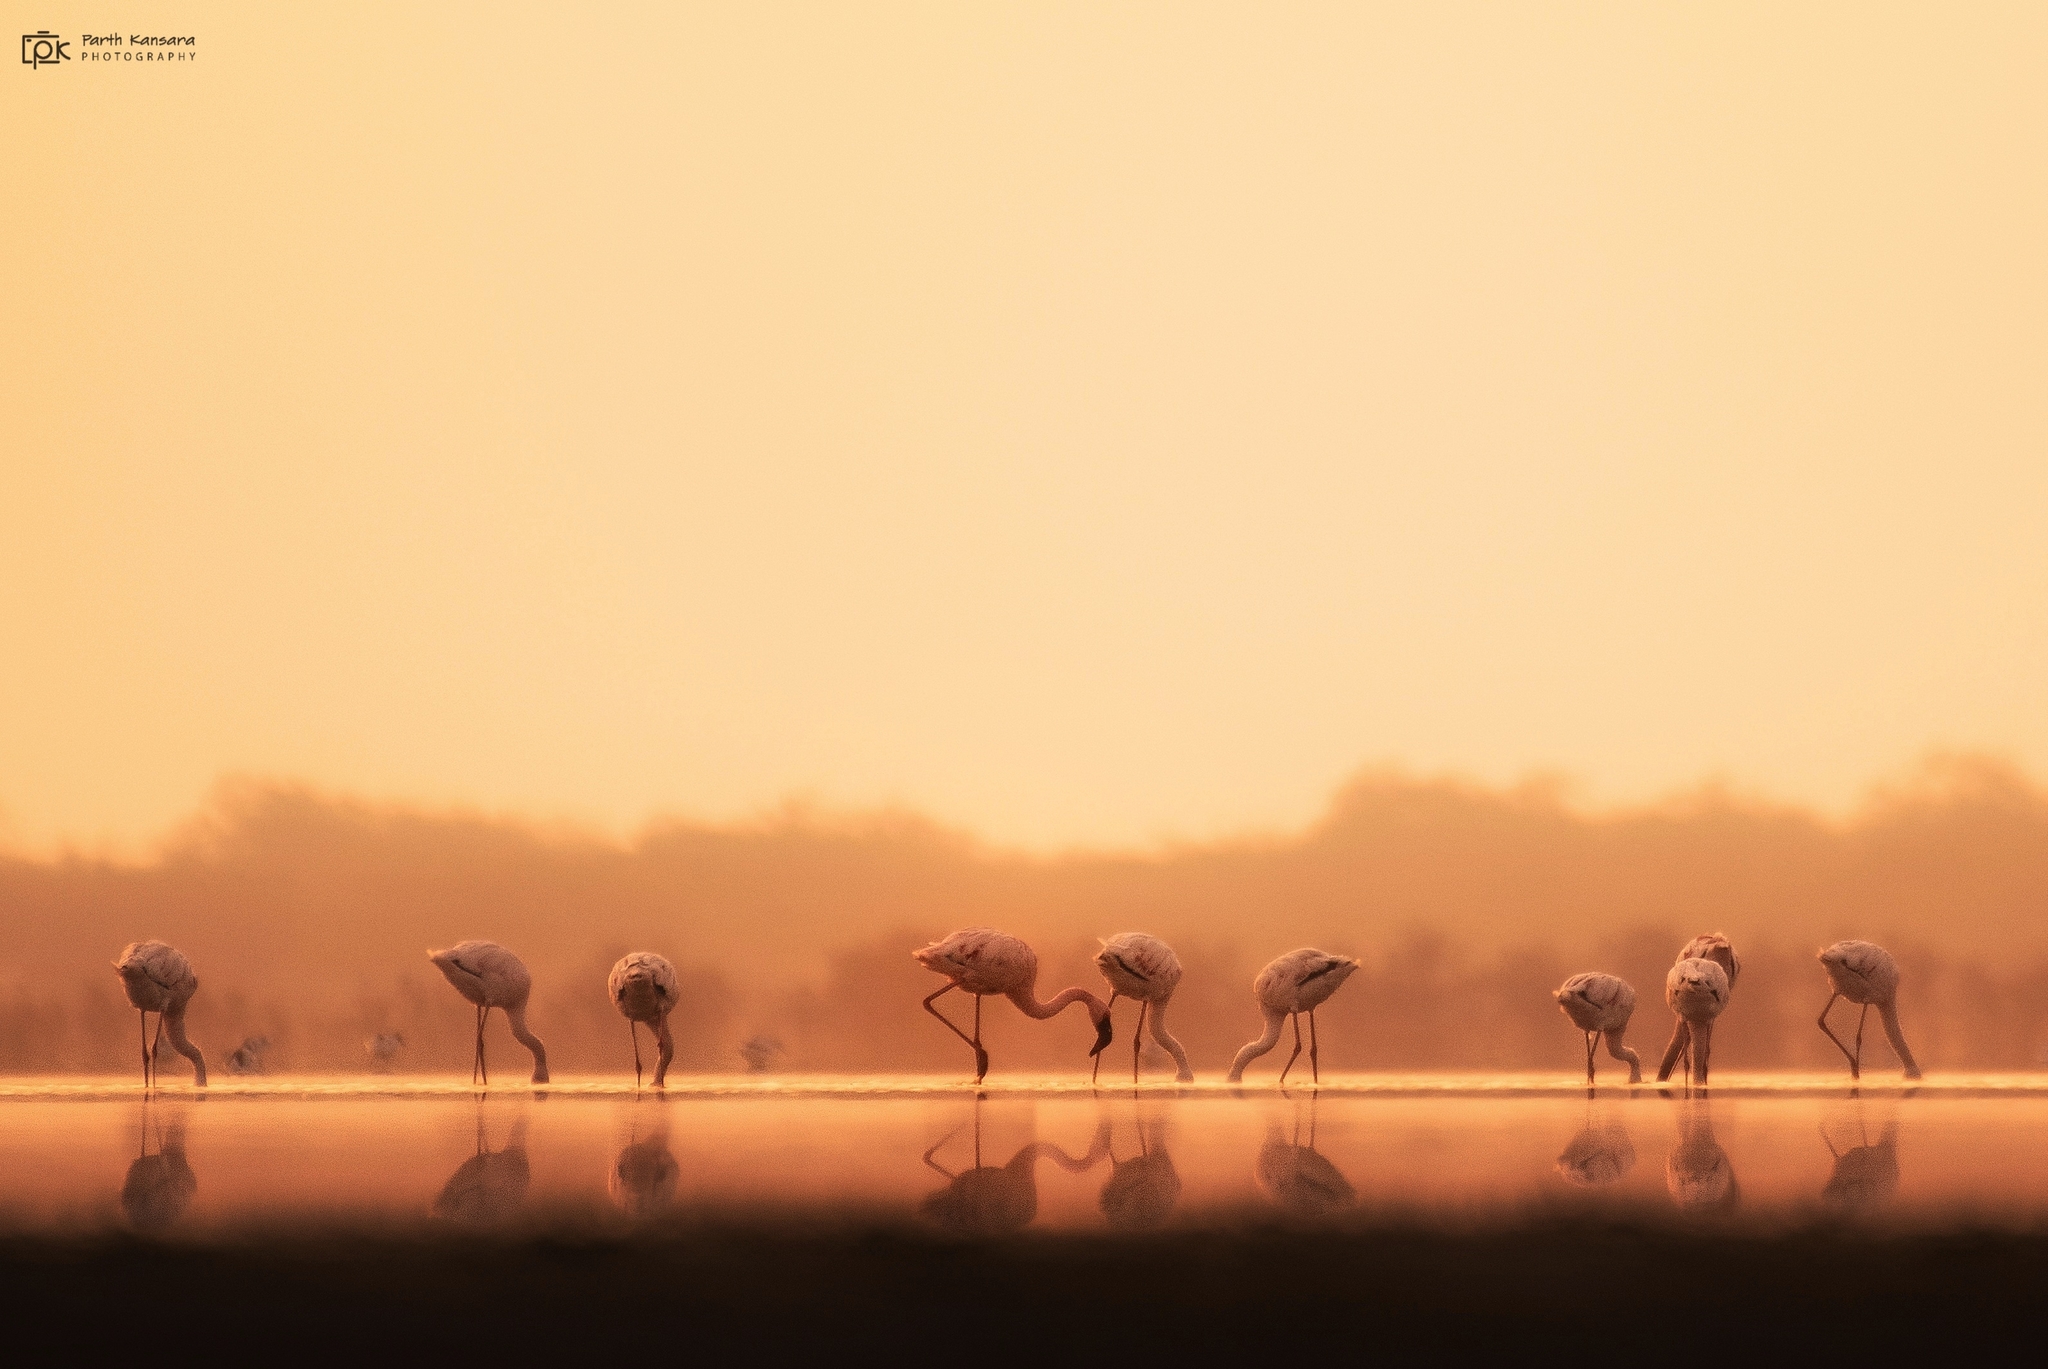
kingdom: Animalia
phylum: Chordata
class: Aves
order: Phoenicopteriformes
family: Phoenicopteridae
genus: Phoeniconaias
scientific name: Phoeniconaias minor
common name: Lesser flamingo
